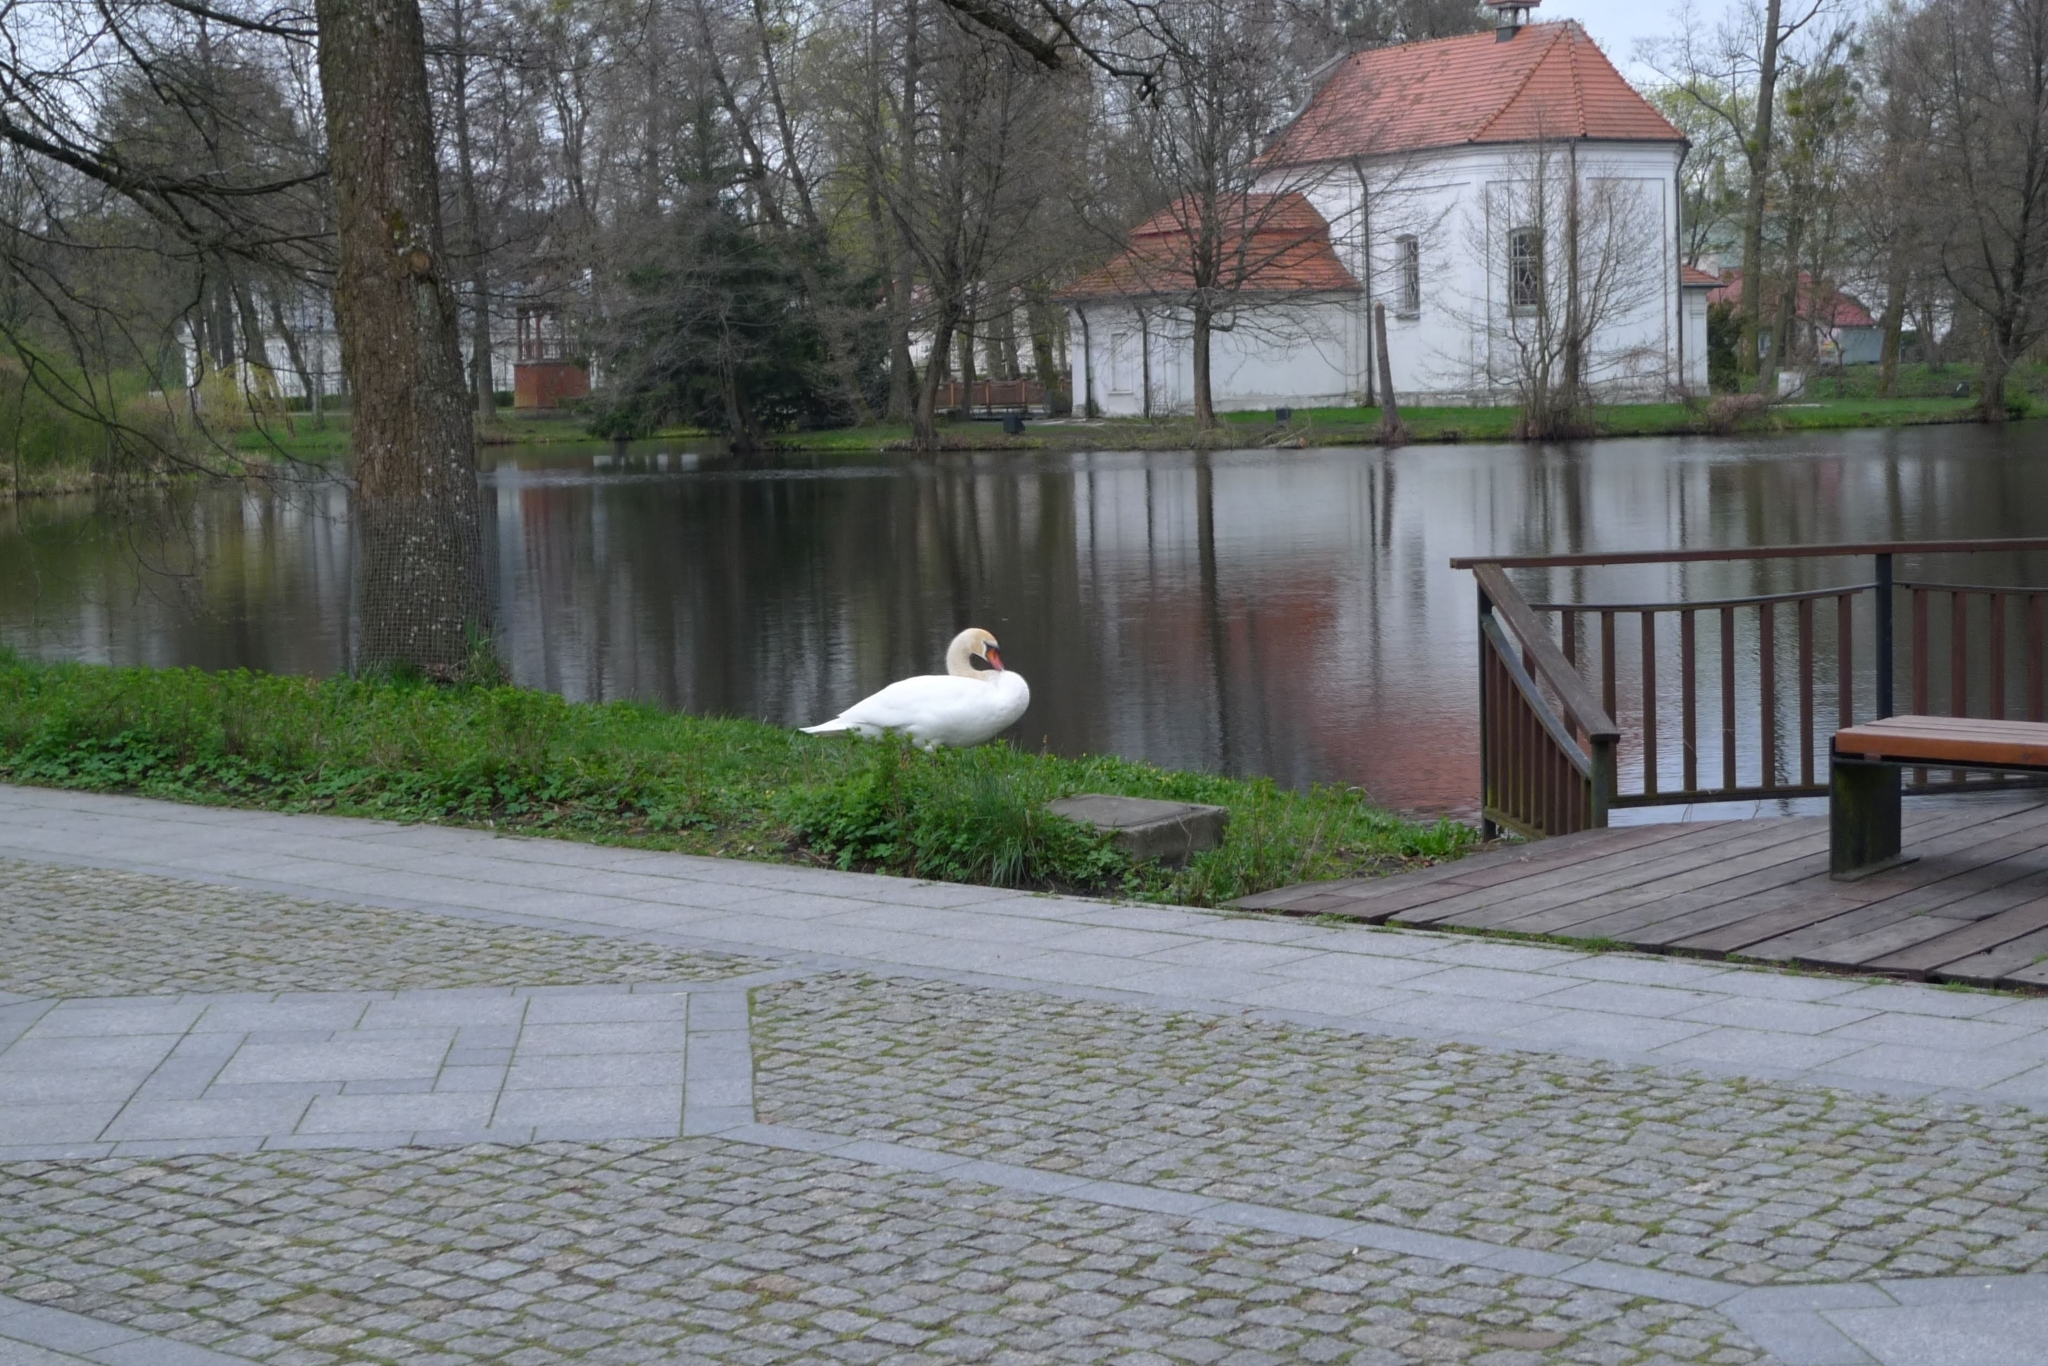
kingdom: Animalia
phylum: Chordata
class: Aves
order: Anseriformes
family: Anatidae
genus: Cygnus
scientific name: Cygnus olor
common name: Mute swan
